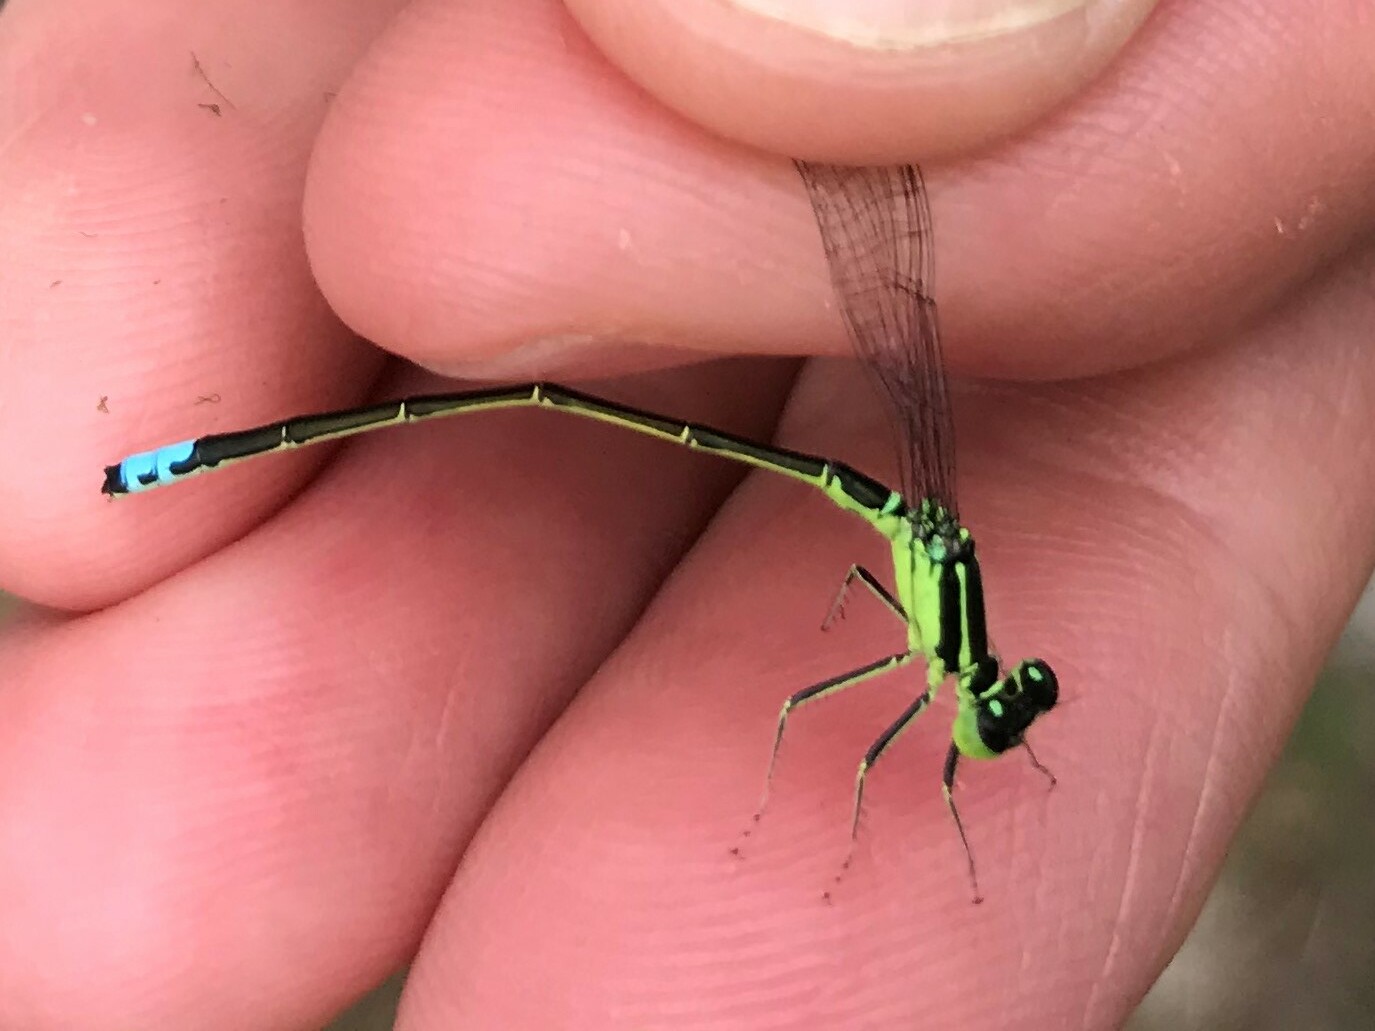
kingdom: Animalia
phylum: Arthropoda
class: Insecta
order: Odonata
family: Coenagrionidae
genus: Ischnura
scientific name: Ischnura verticalis
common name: Eastern forktail
